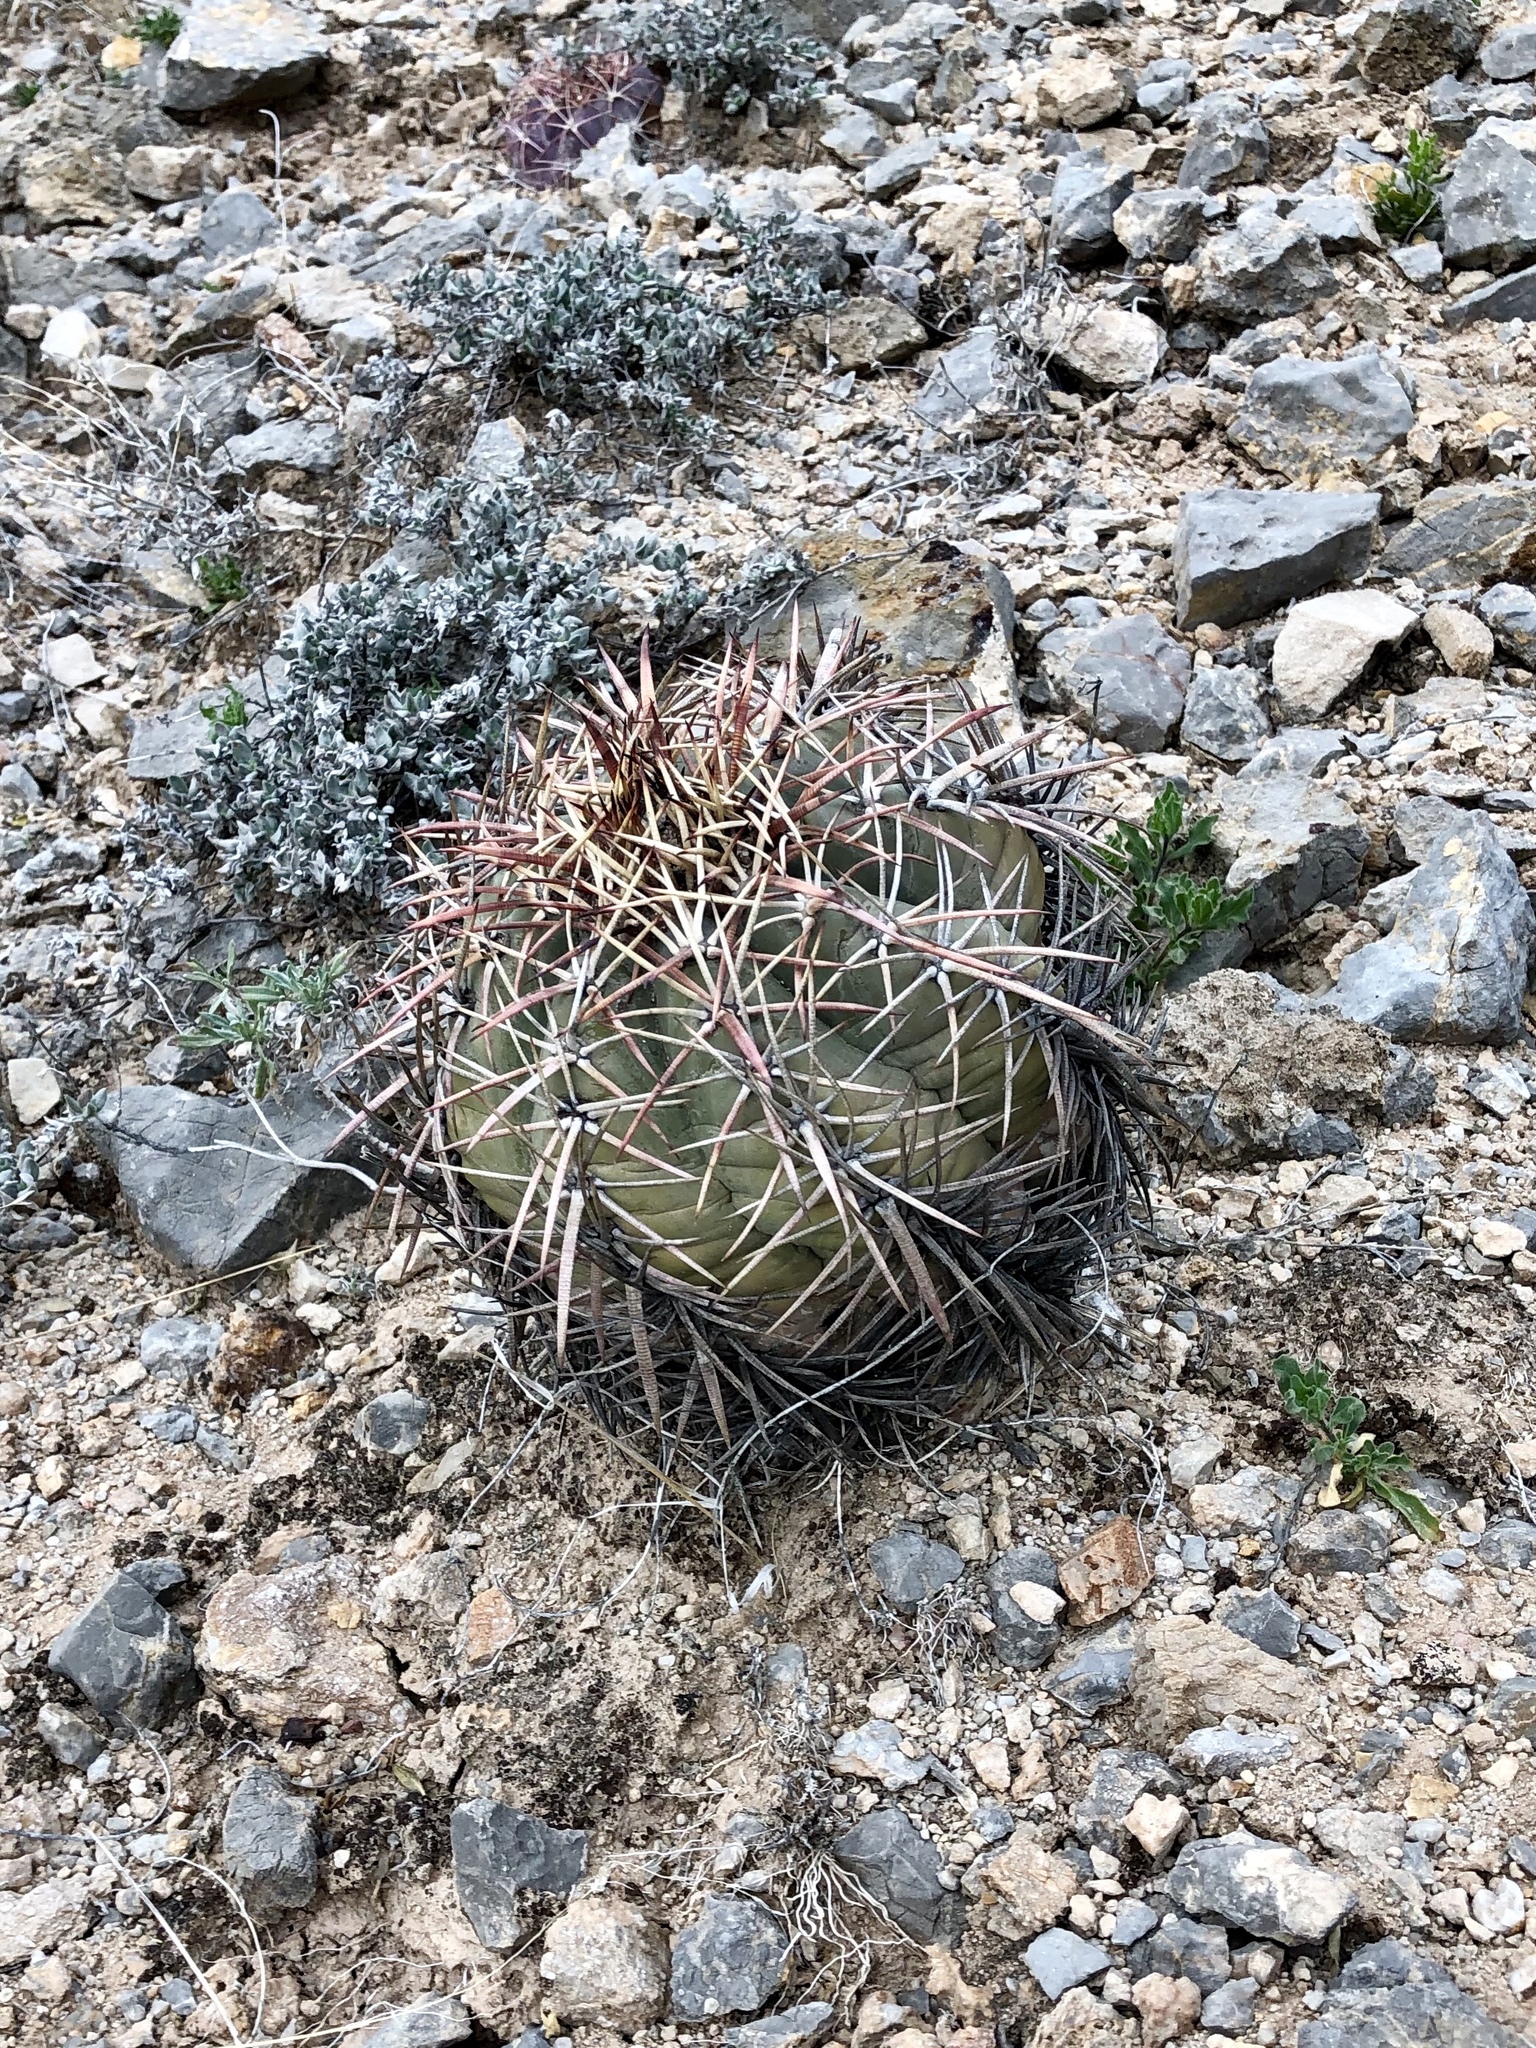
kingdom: Plantae
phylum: Tracheophyta
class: Magnoliopsida
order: Caryophyllales
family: Cactaceae
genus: Echinocactus
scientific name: Echinocactus horizonthalonius
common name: Devilshead
